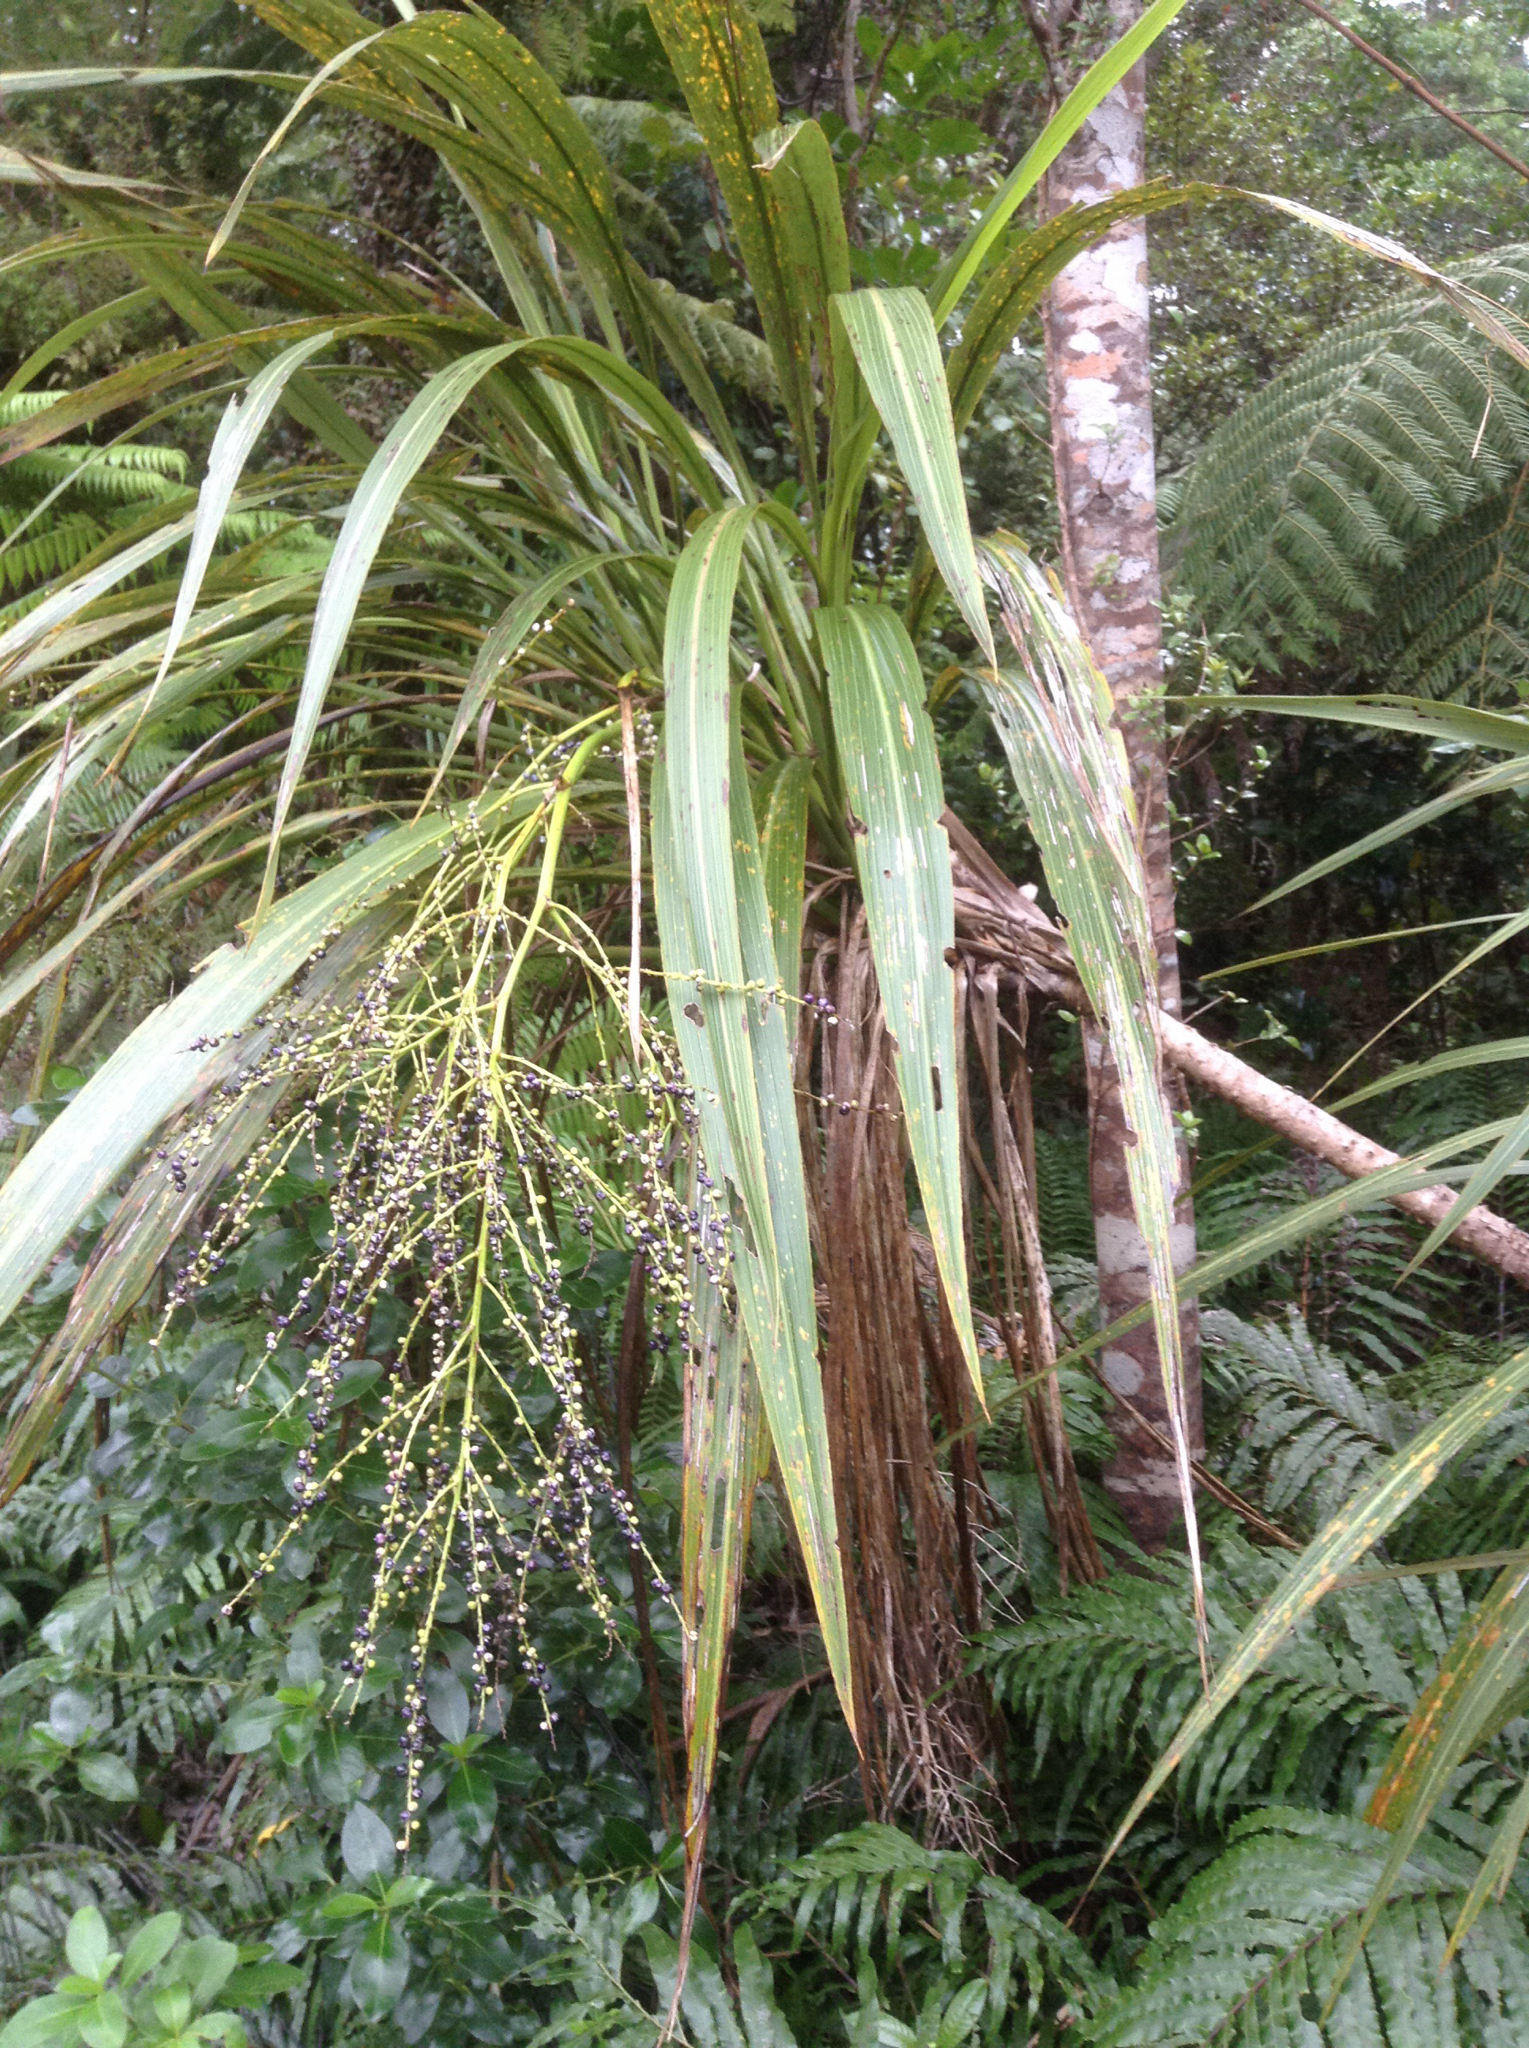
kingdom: Plantae
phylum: Tracheophyta
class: Liliopsida
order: Asparagales
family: Asparagaceae
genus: Cordyline
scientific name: Cordyline banksii
